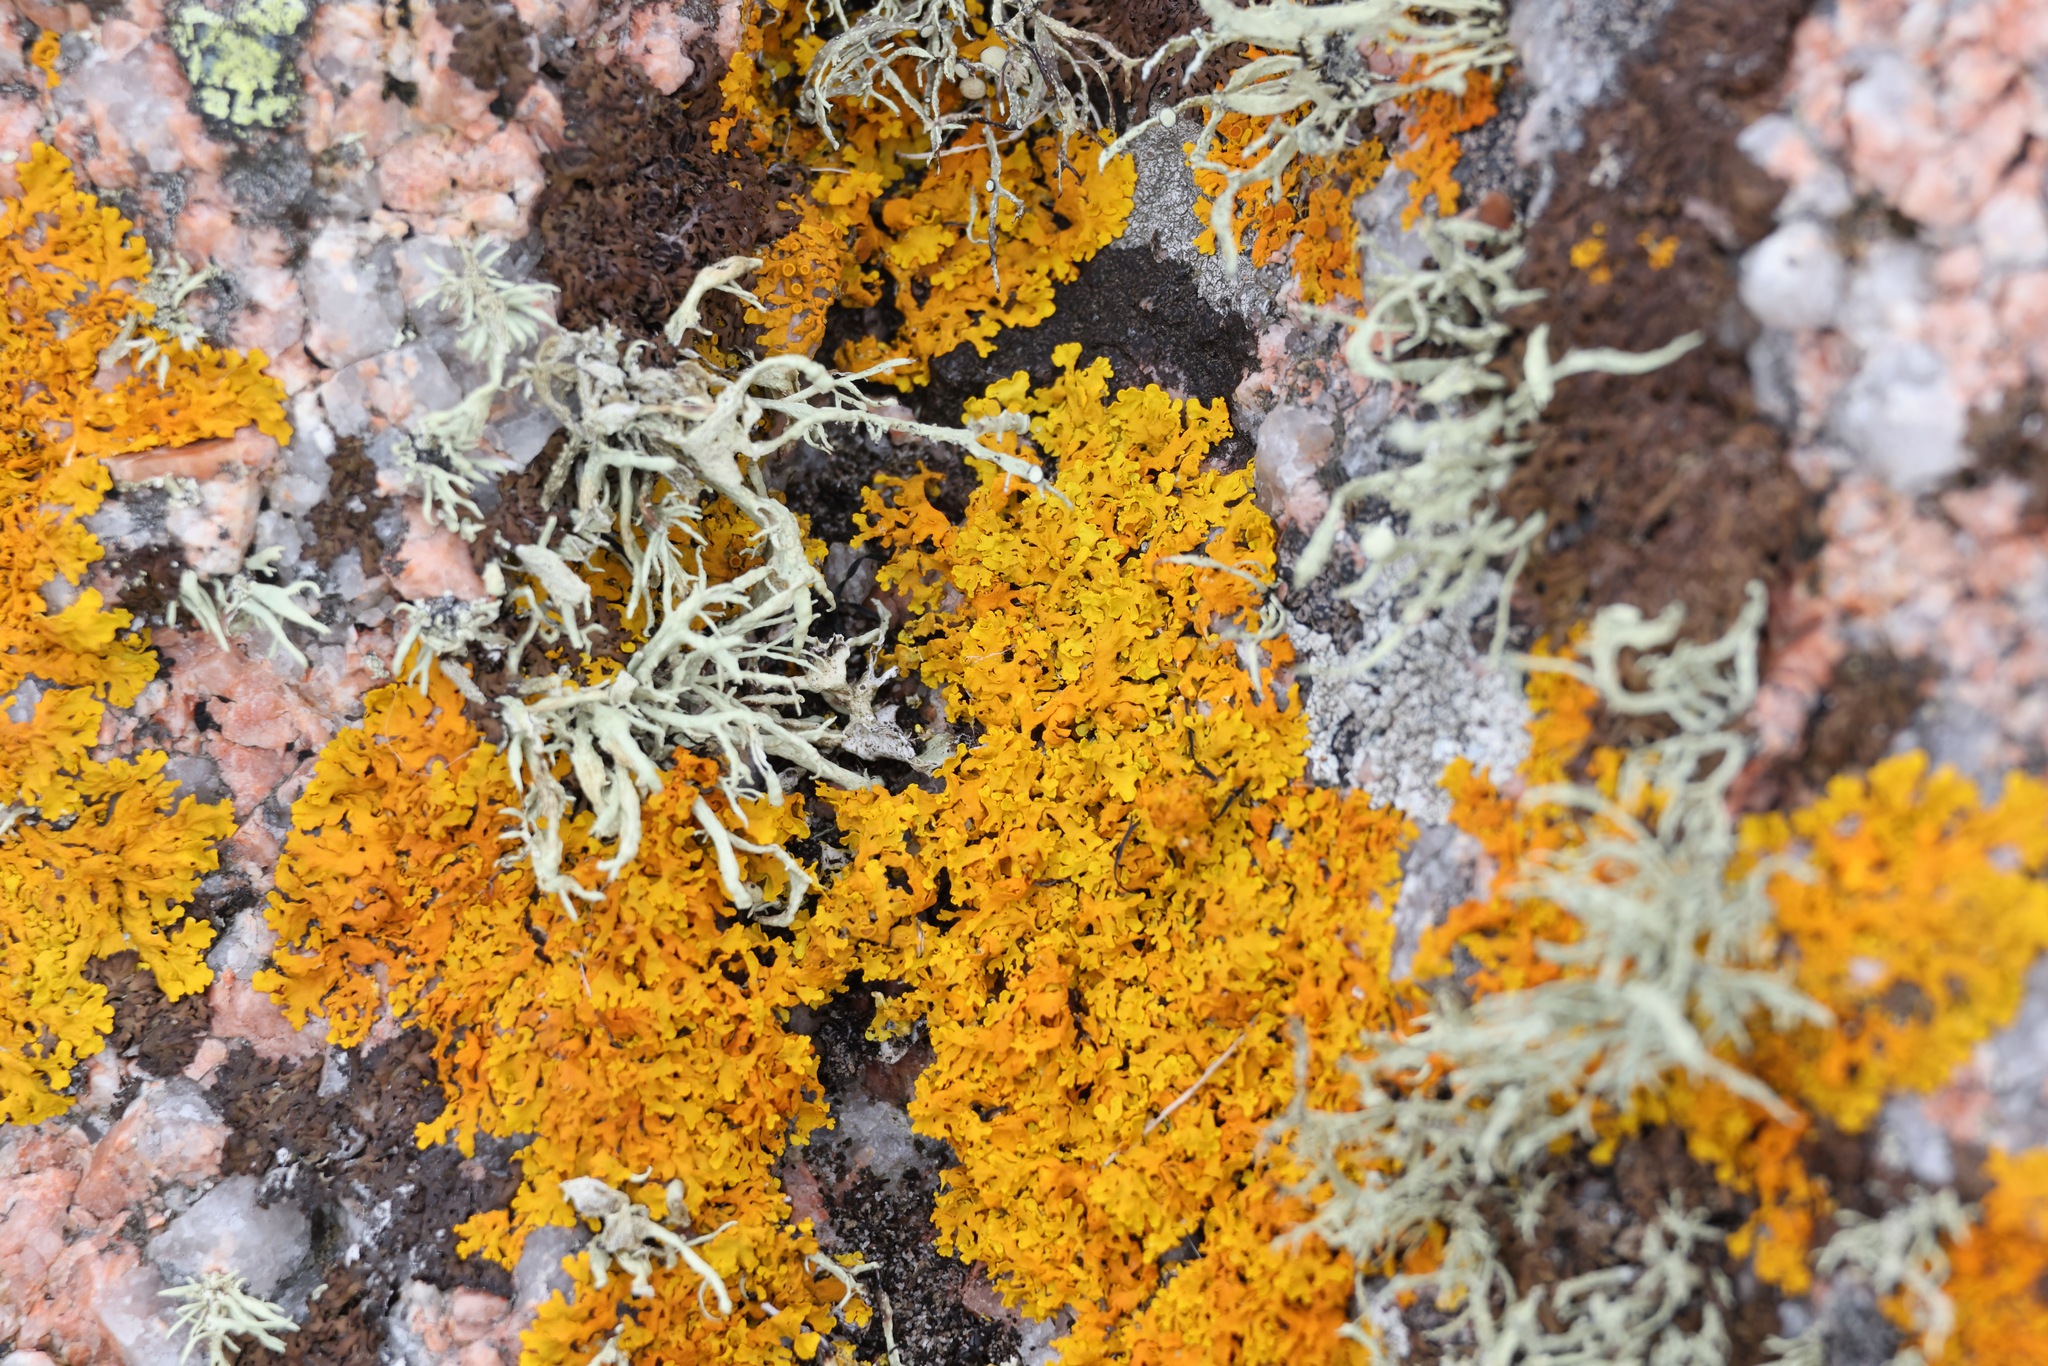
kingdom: Fungi
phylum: Ascomycota
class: Lecanoromycetes
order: Teloschistales
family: Teloschistaceae
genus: Xanthoria
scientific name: Xanthoria aureola
